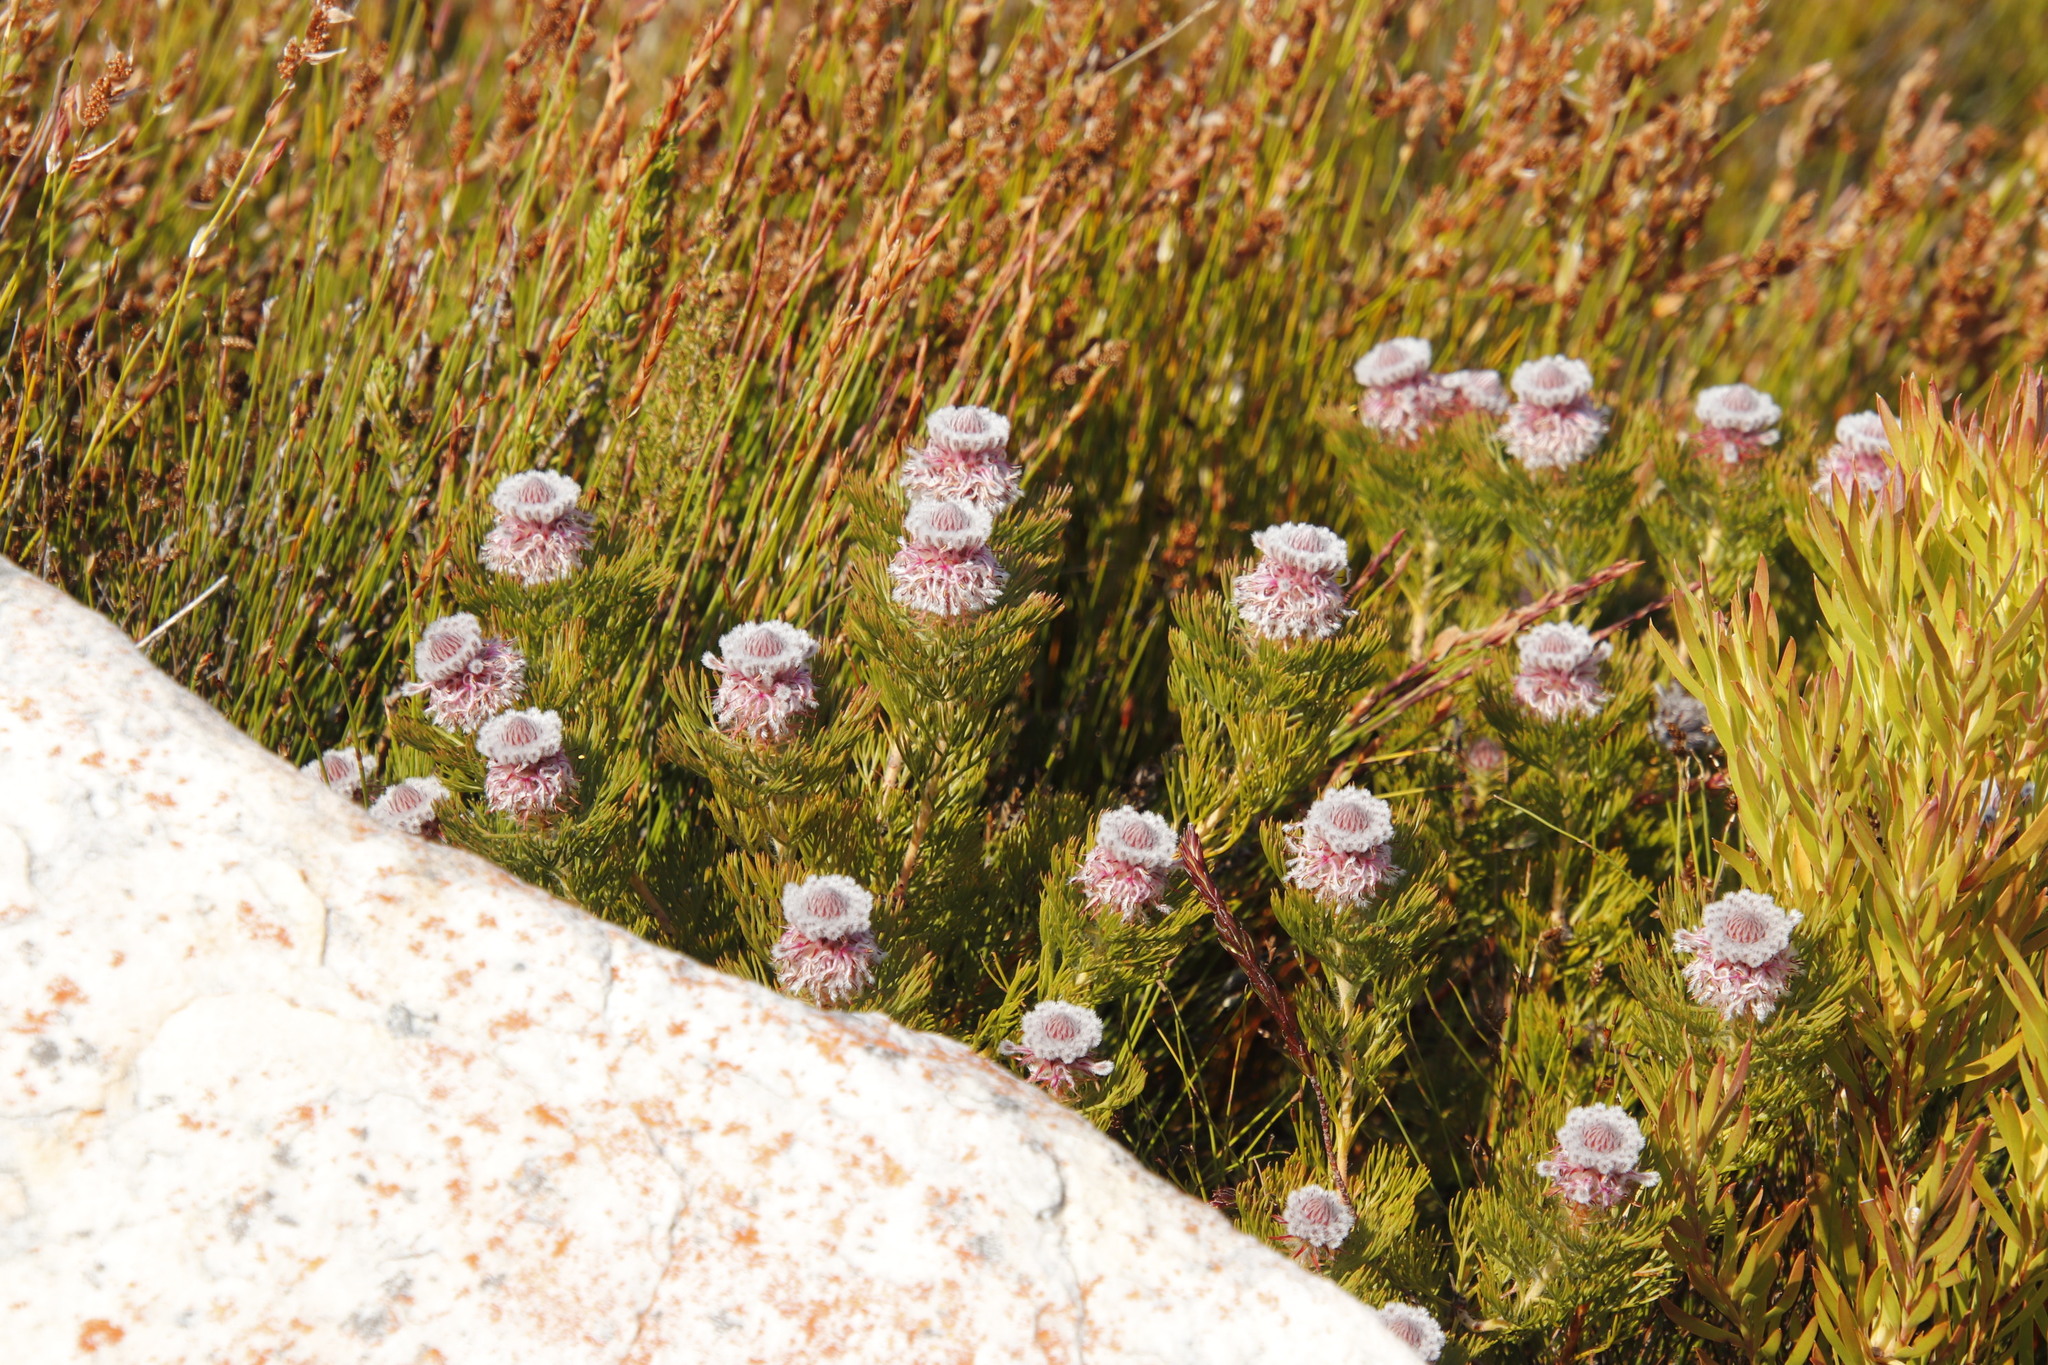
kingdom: Plantae
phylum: Tracheophyta
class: Magnoliopsida
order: Proteales
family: Proteaceae
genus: Serruria
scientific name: Serruria hirsuta
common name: Swartkops spiderhead
